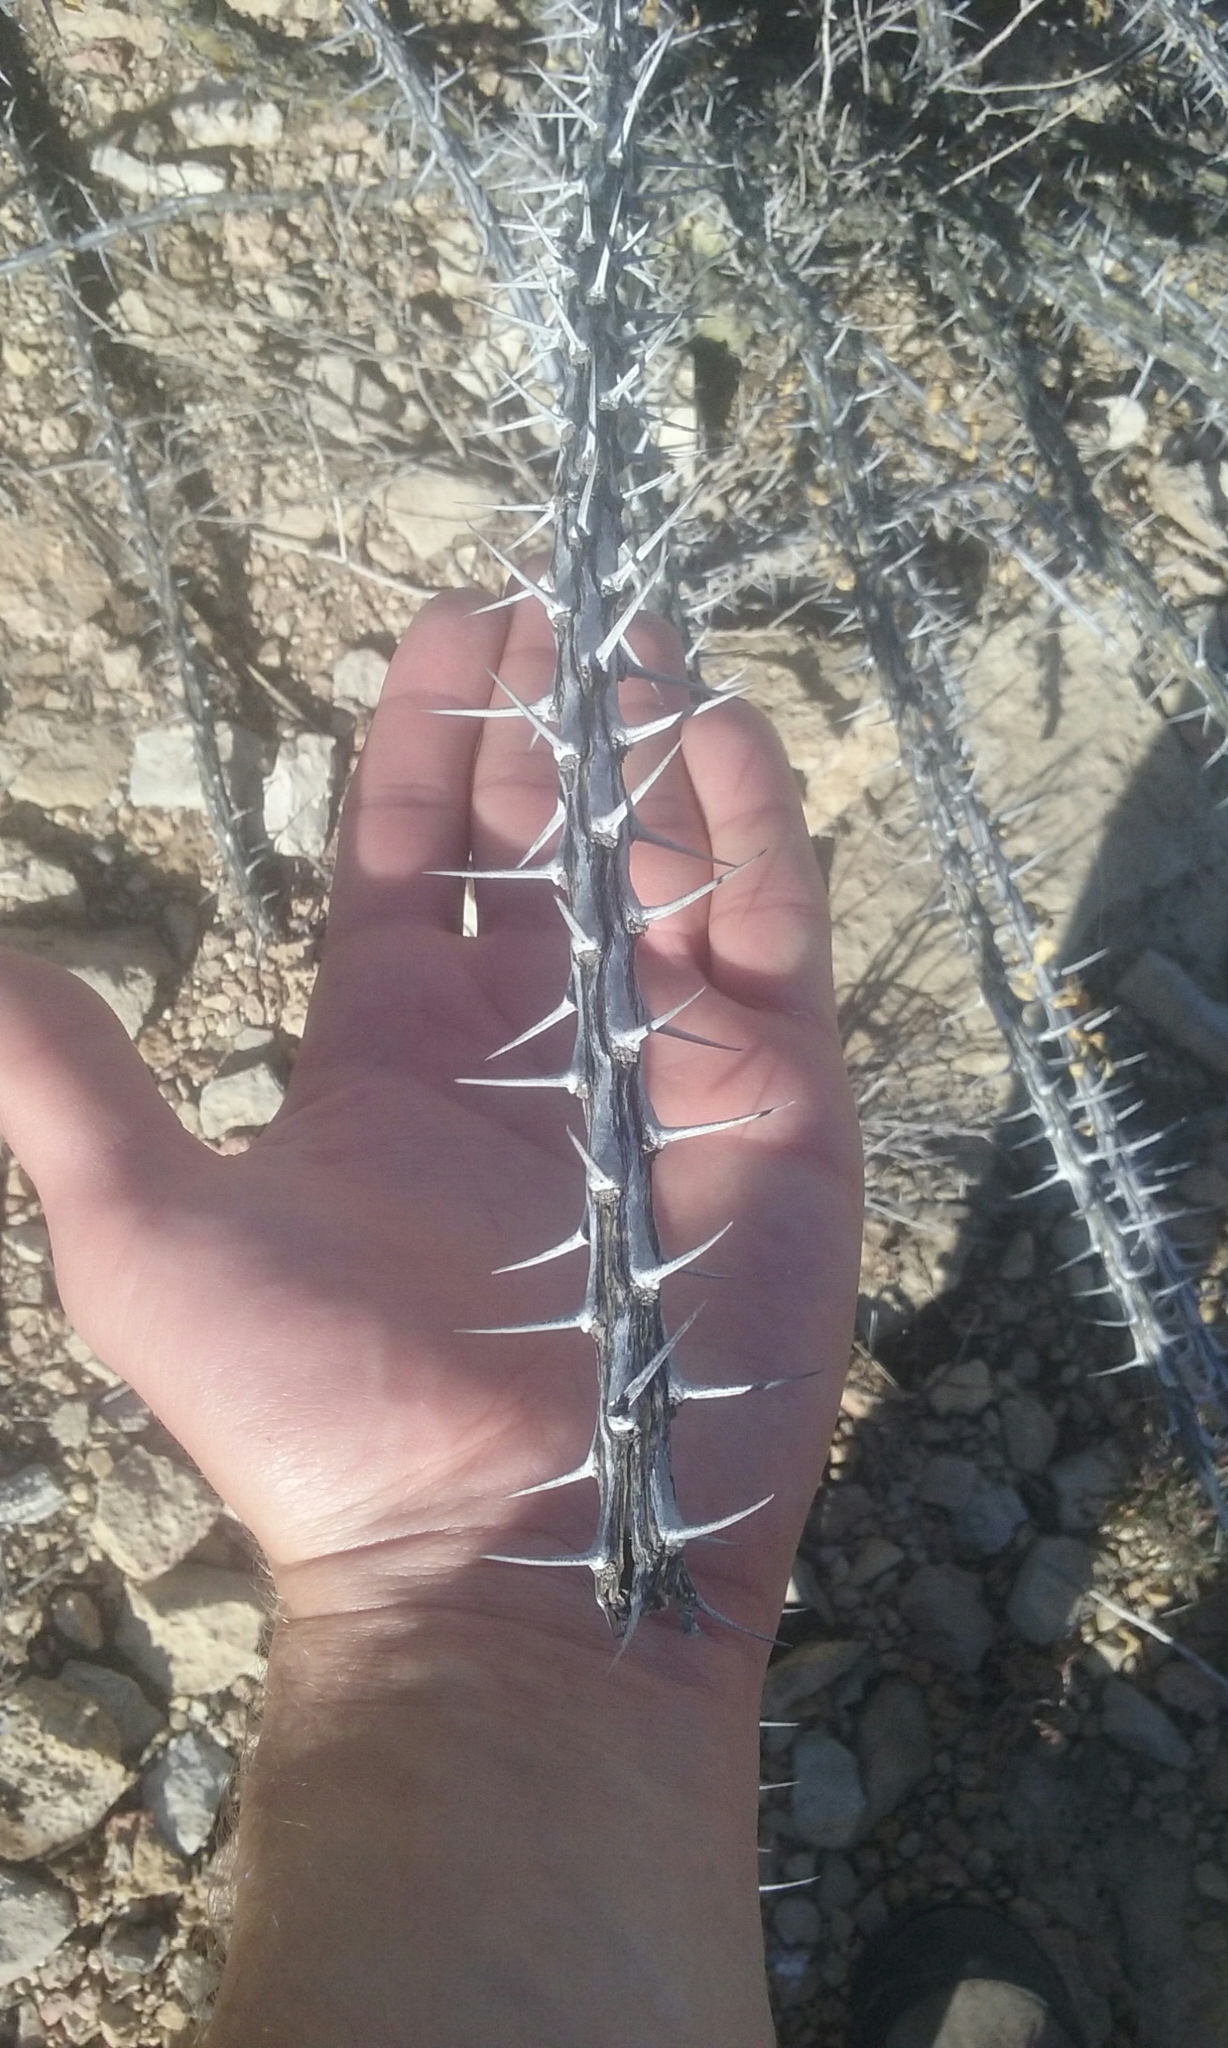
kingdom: Plantae
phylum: Tracheophyta
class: Magnoliopsida
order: Ericales
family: Fouquieriaceae
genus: Fouquieria
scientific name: Fouquieria splendens
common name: Vine-cactus
